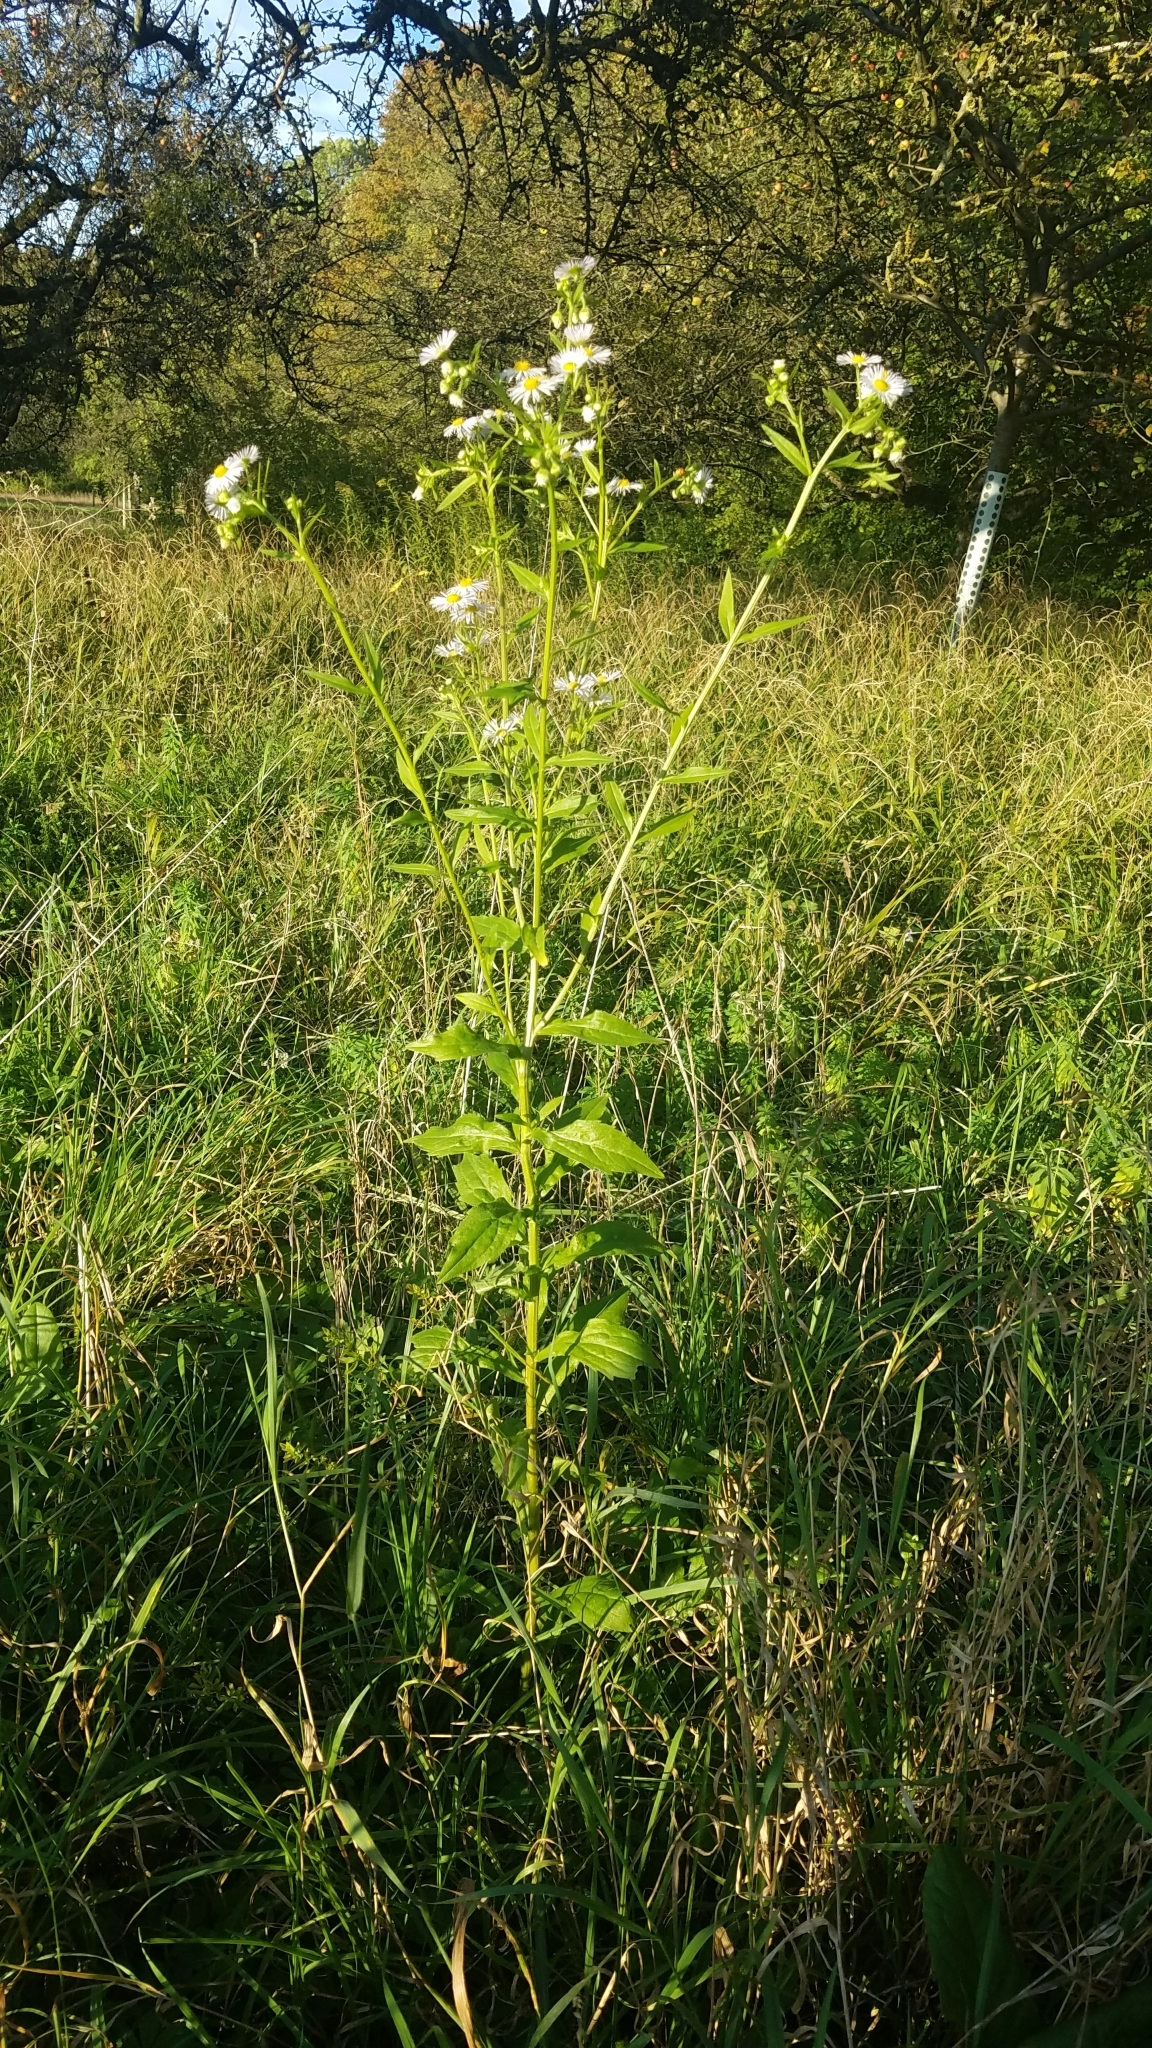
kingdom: Plantae
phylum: Tracheophyta
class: Magnoliopsida
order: Asterales
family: Asteraceae
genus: Erigeron
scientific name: Erigeron annuus
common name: Tall fleabane
